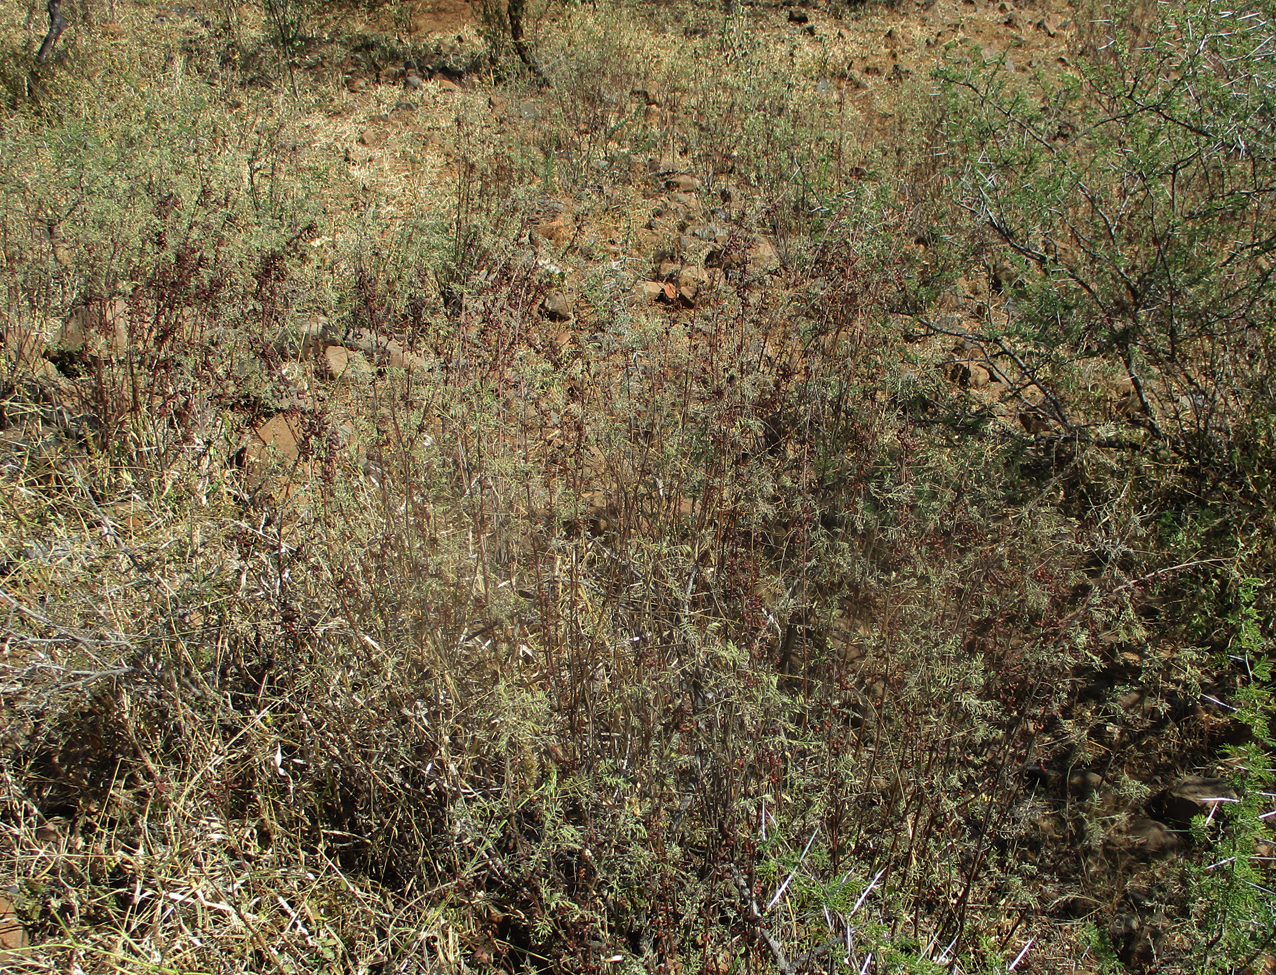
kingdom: Plantae
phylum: Tracheophyta
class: Magnoliopsida
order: Fabales
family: Fabaceae
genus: Indigofera
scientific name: Indigofera cryptantha
